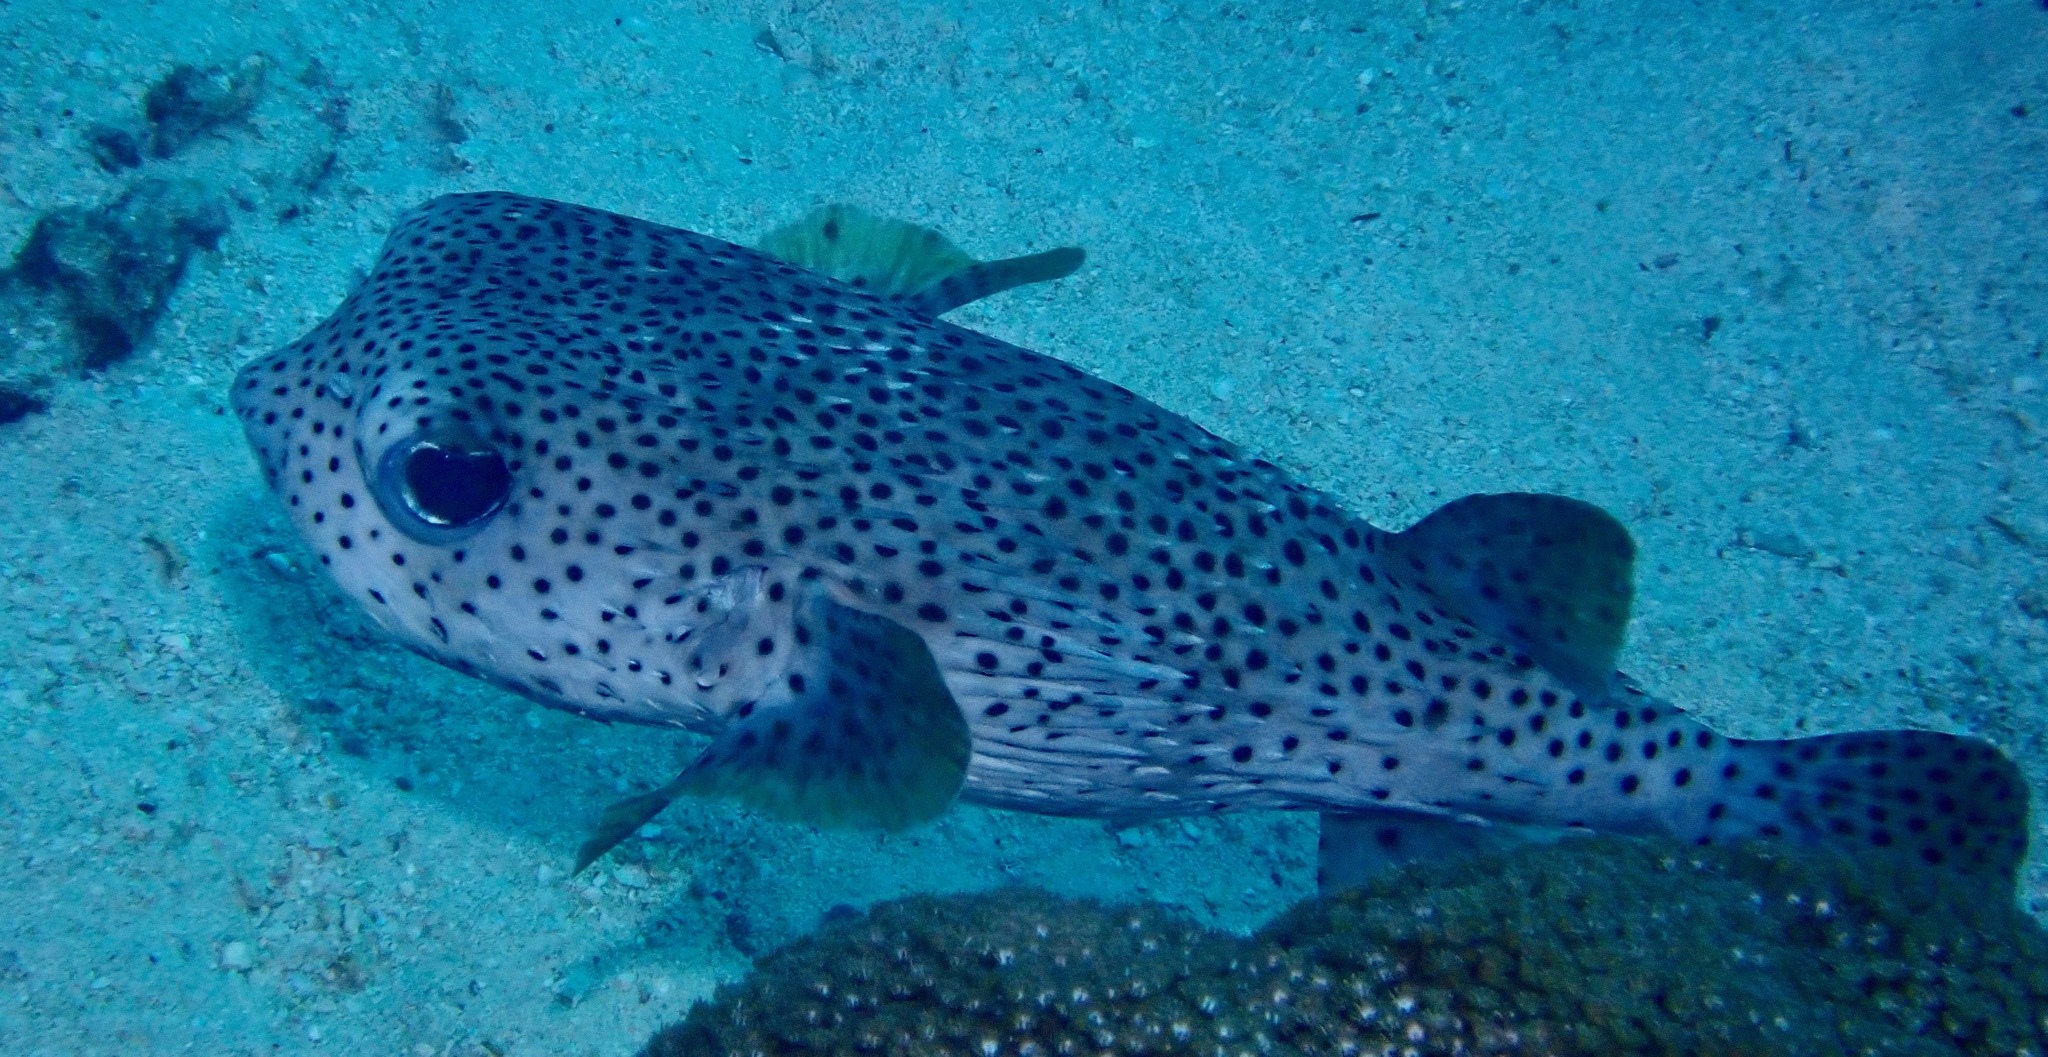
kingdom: Animalia
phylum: Chordata
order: Tetraodontiformes
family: Diodontidae
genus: Diodon
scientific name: Diodon hystrix
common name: Giant porcupinefish
